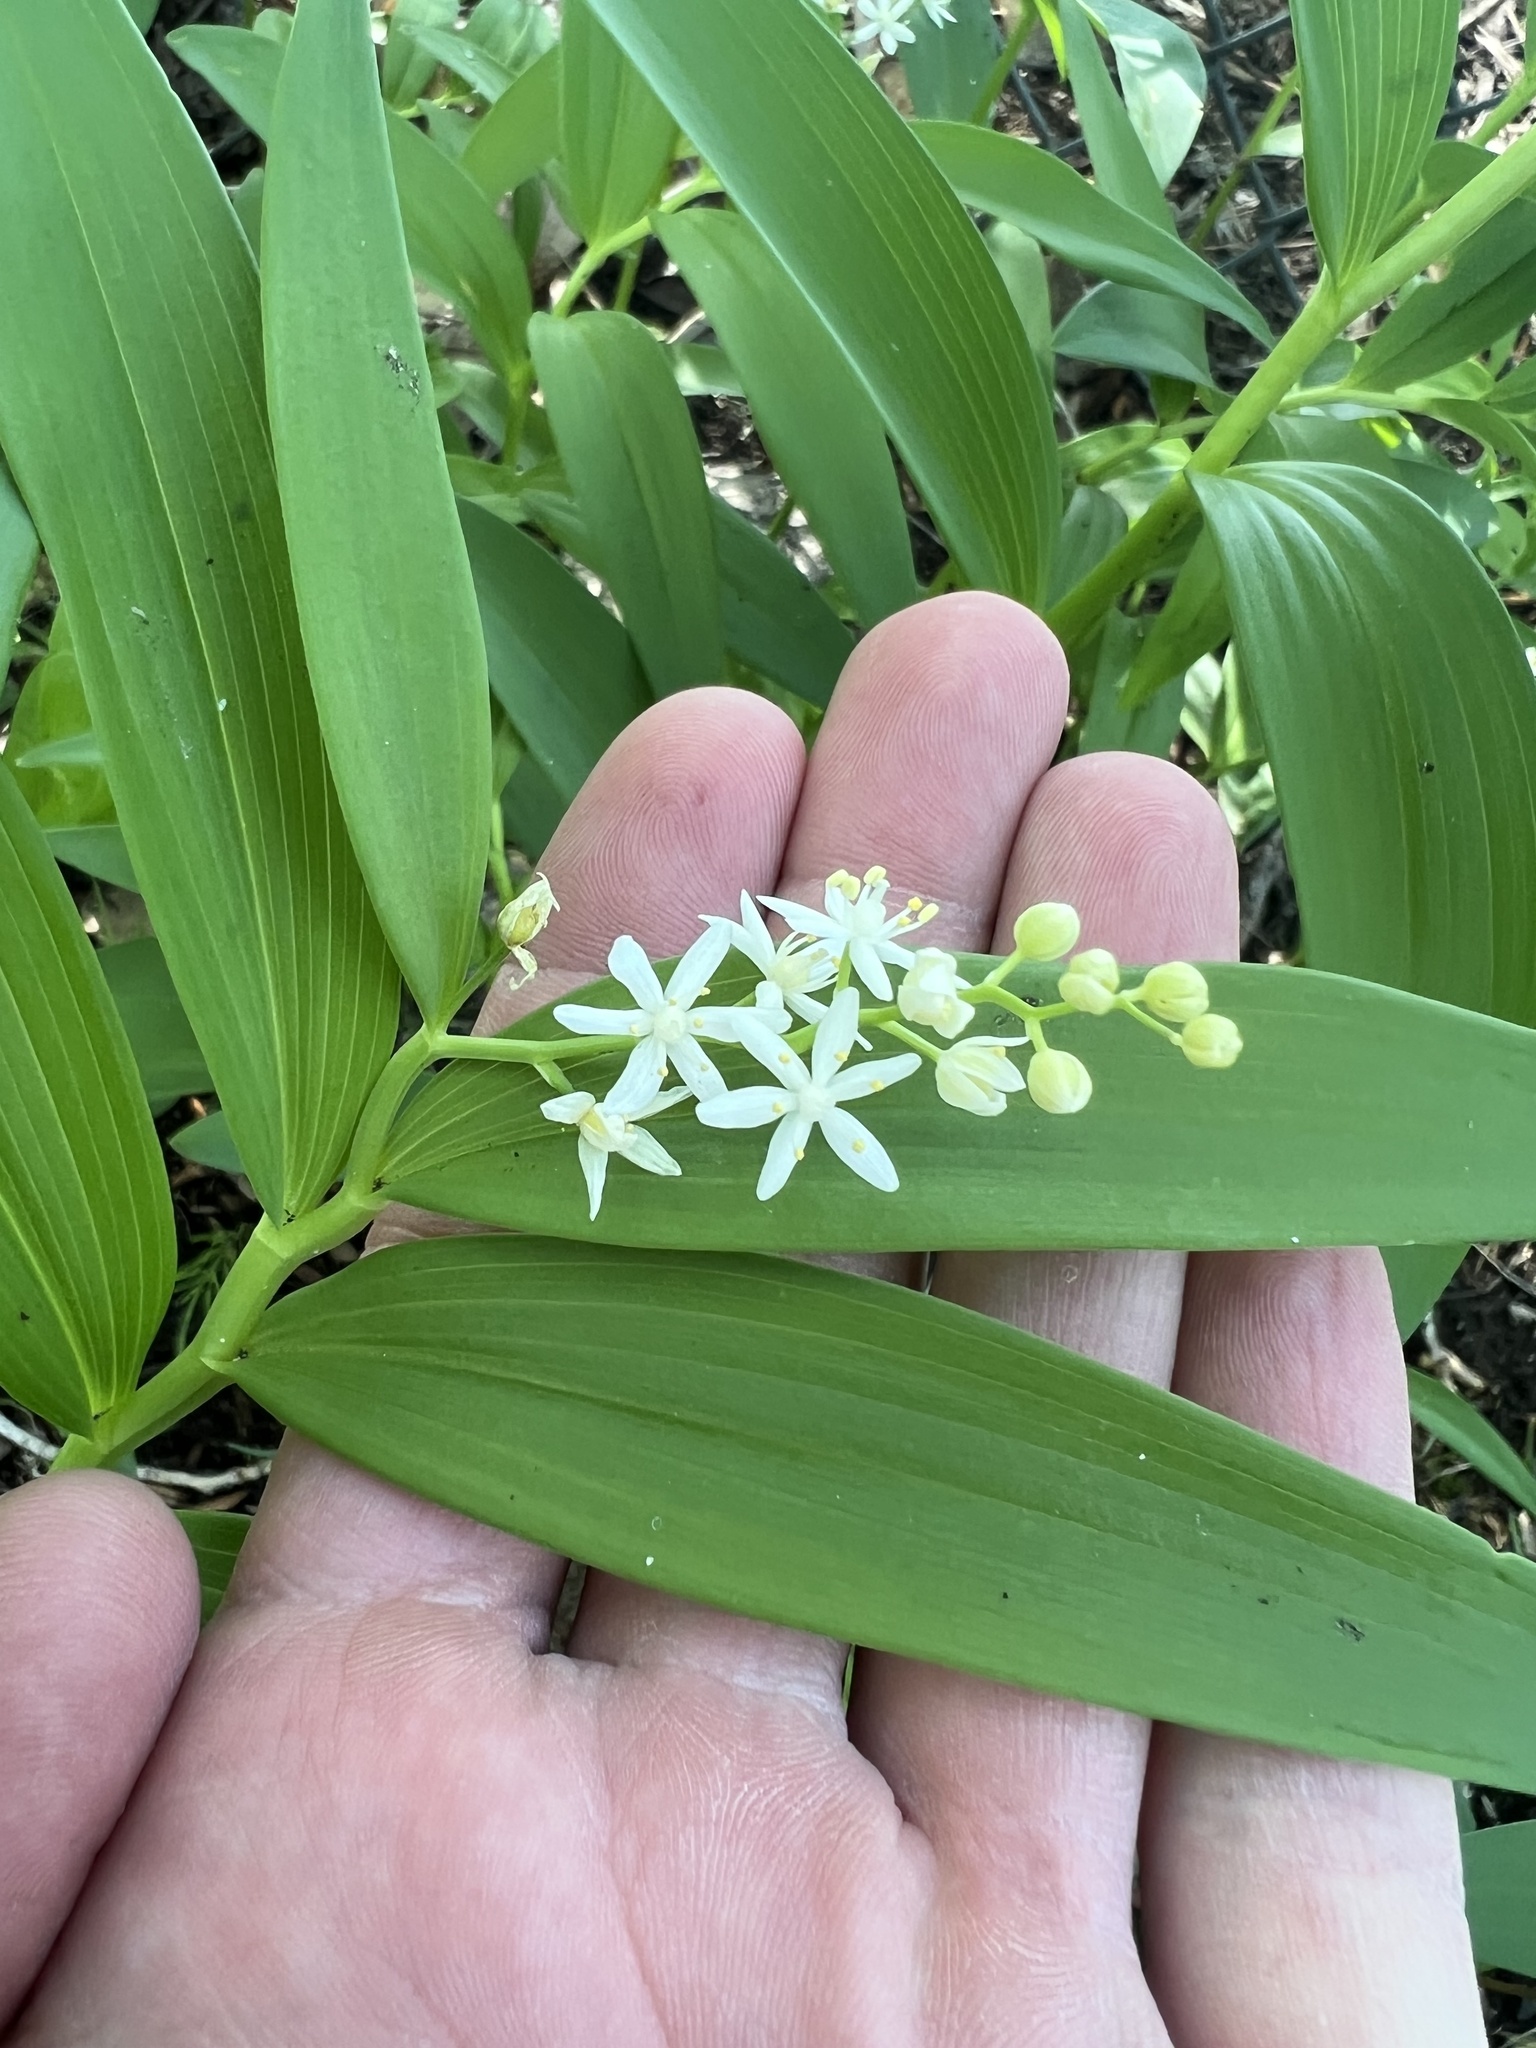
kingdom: Plantae
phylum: Tracheophyta
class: Liliopsida
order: Asparagales
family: Asparagaceae
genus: Maianthemum
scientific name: Maianthemum stellatum
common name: Little false solomon's seal
